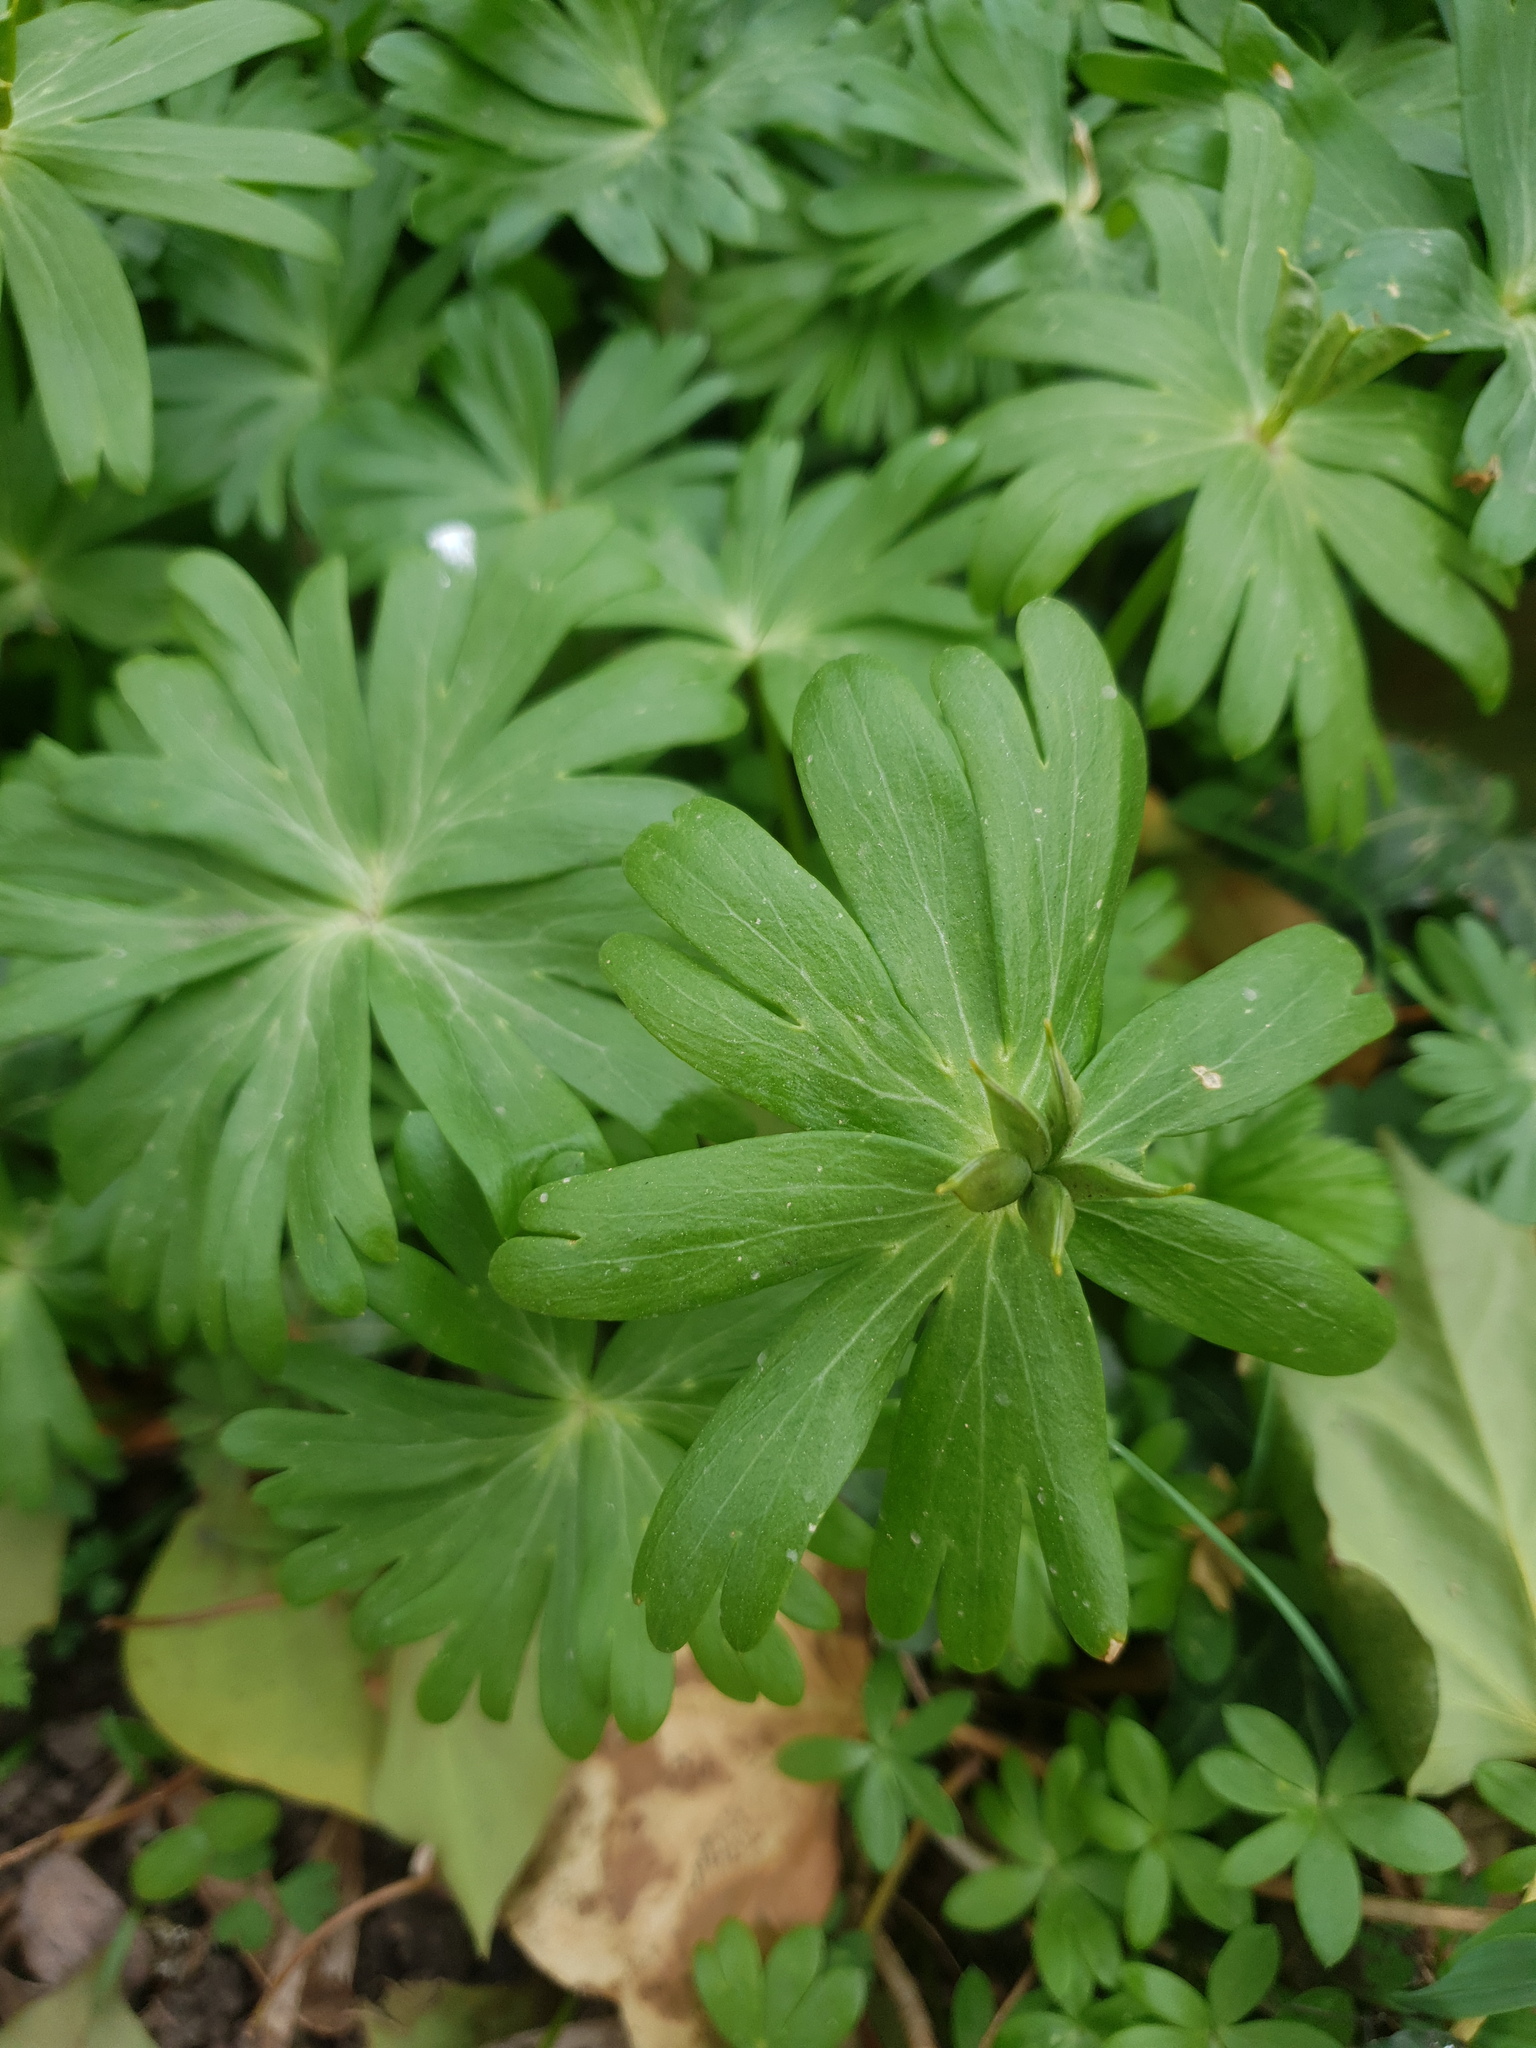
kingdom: Plantae
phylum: Tracheophyta
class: Magnoliopsida
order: Ranunculales
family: Ranunculaceae
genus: Eranthis
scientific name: Eranthis hyemalis
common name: Winter aconite
